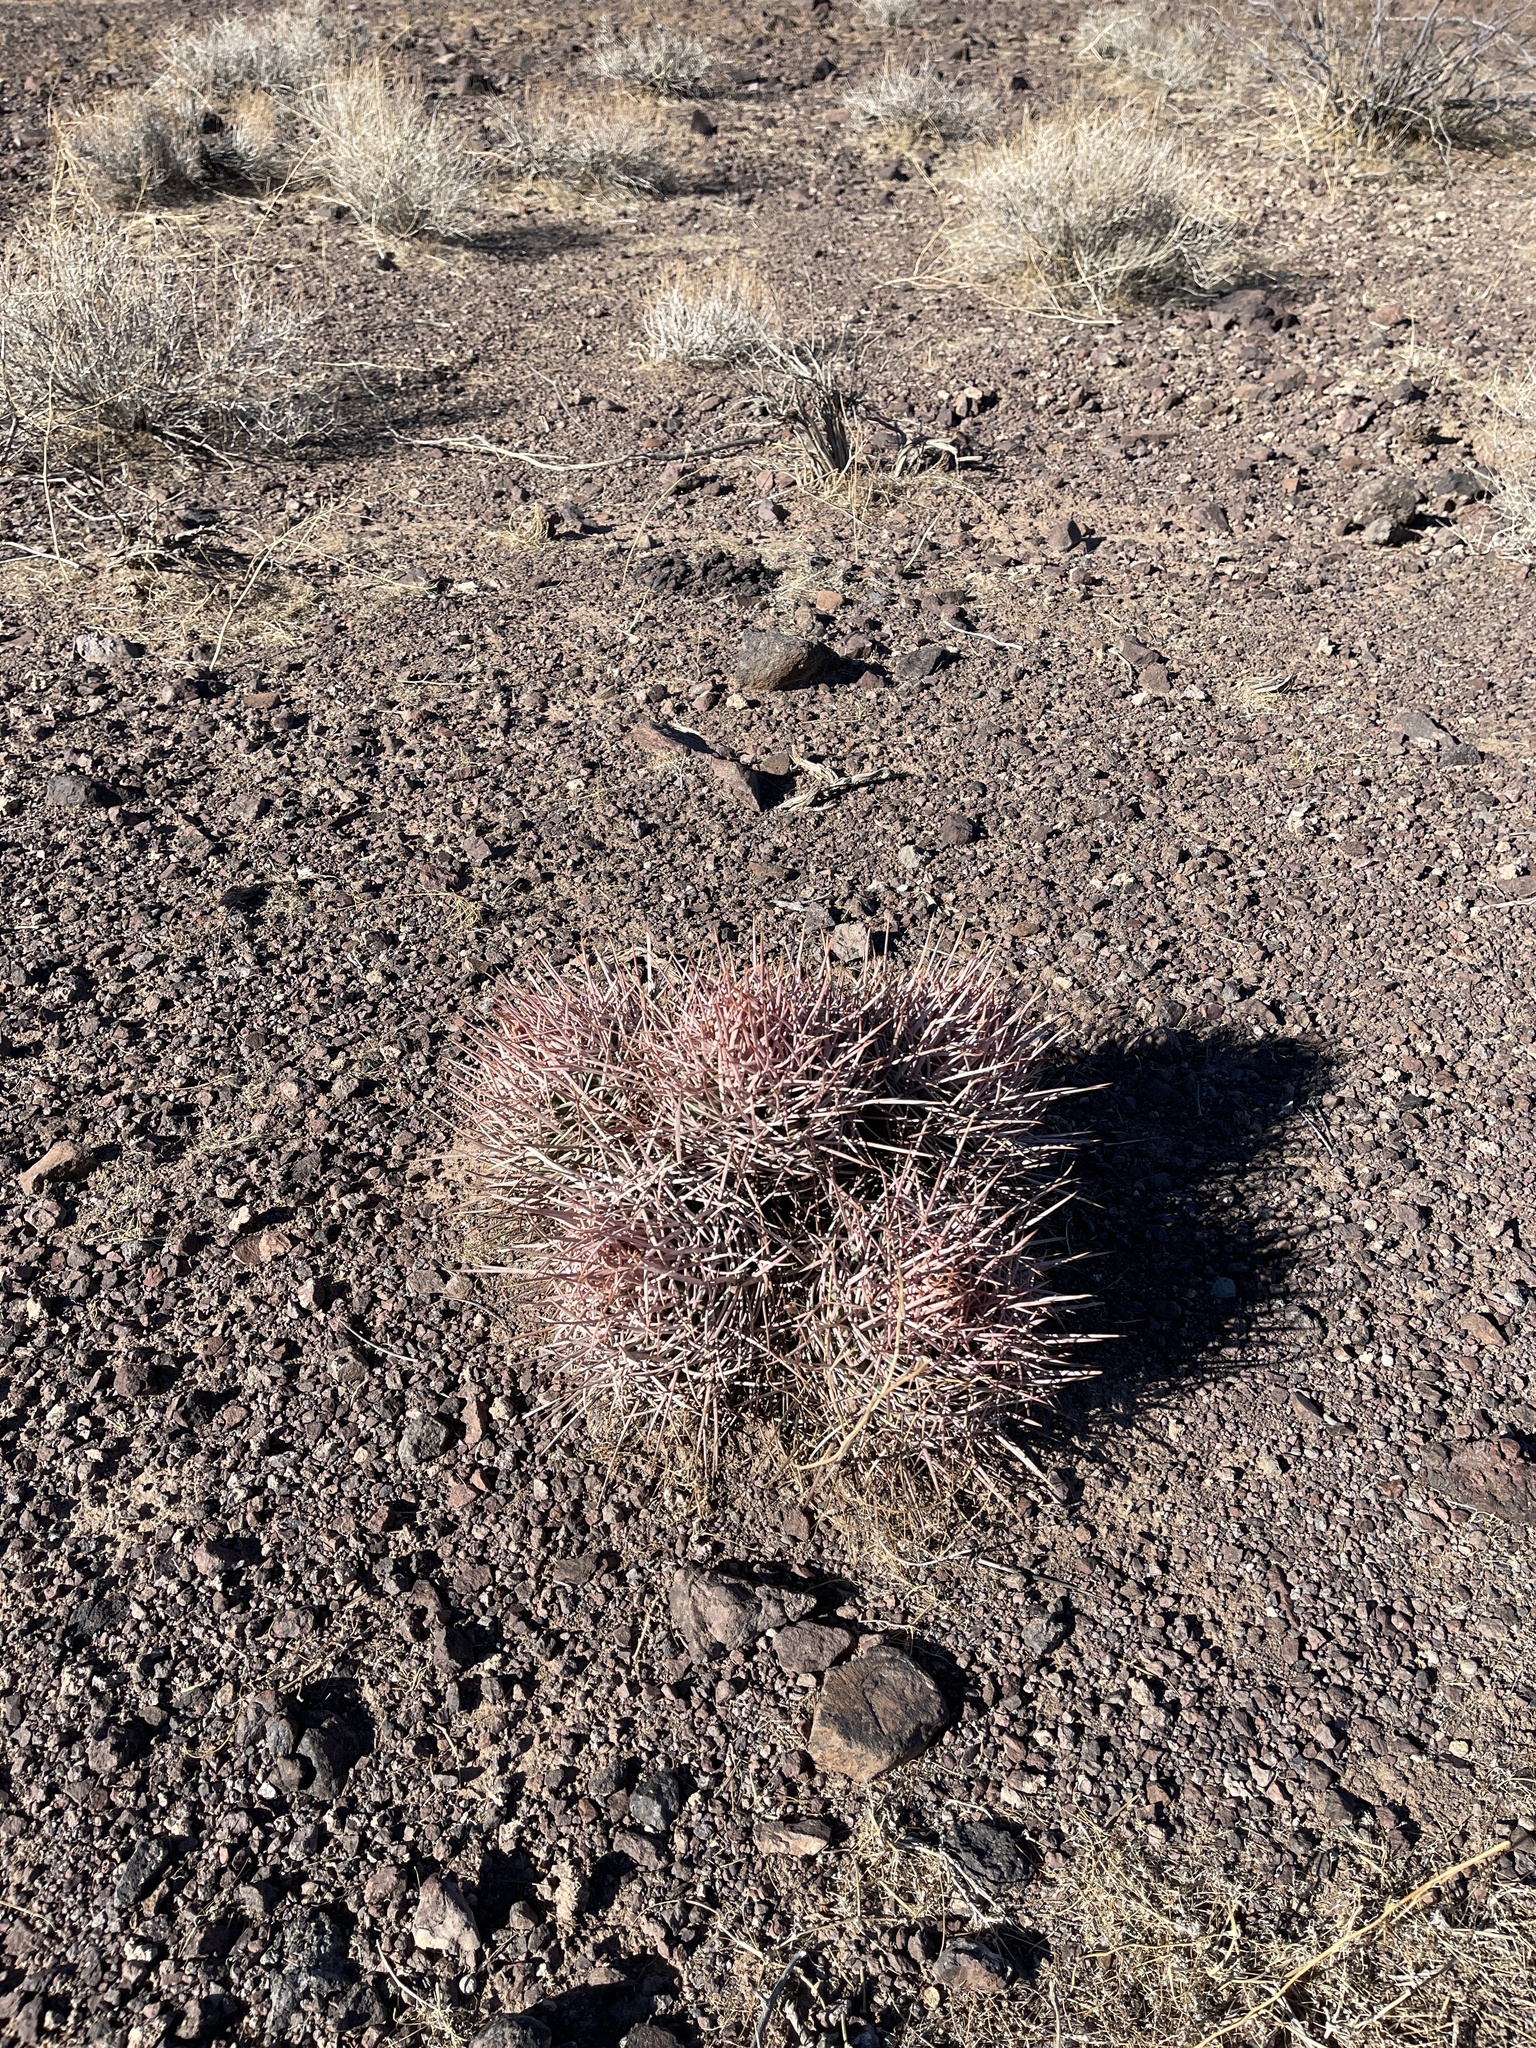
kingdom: Plantae
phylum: Tracheophyta
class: Magnoliopsida
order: Caryophyllales
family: Cactaceae
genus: Echinocactus
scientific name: Echinocactus polycephalus
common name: Cottontop cactus
